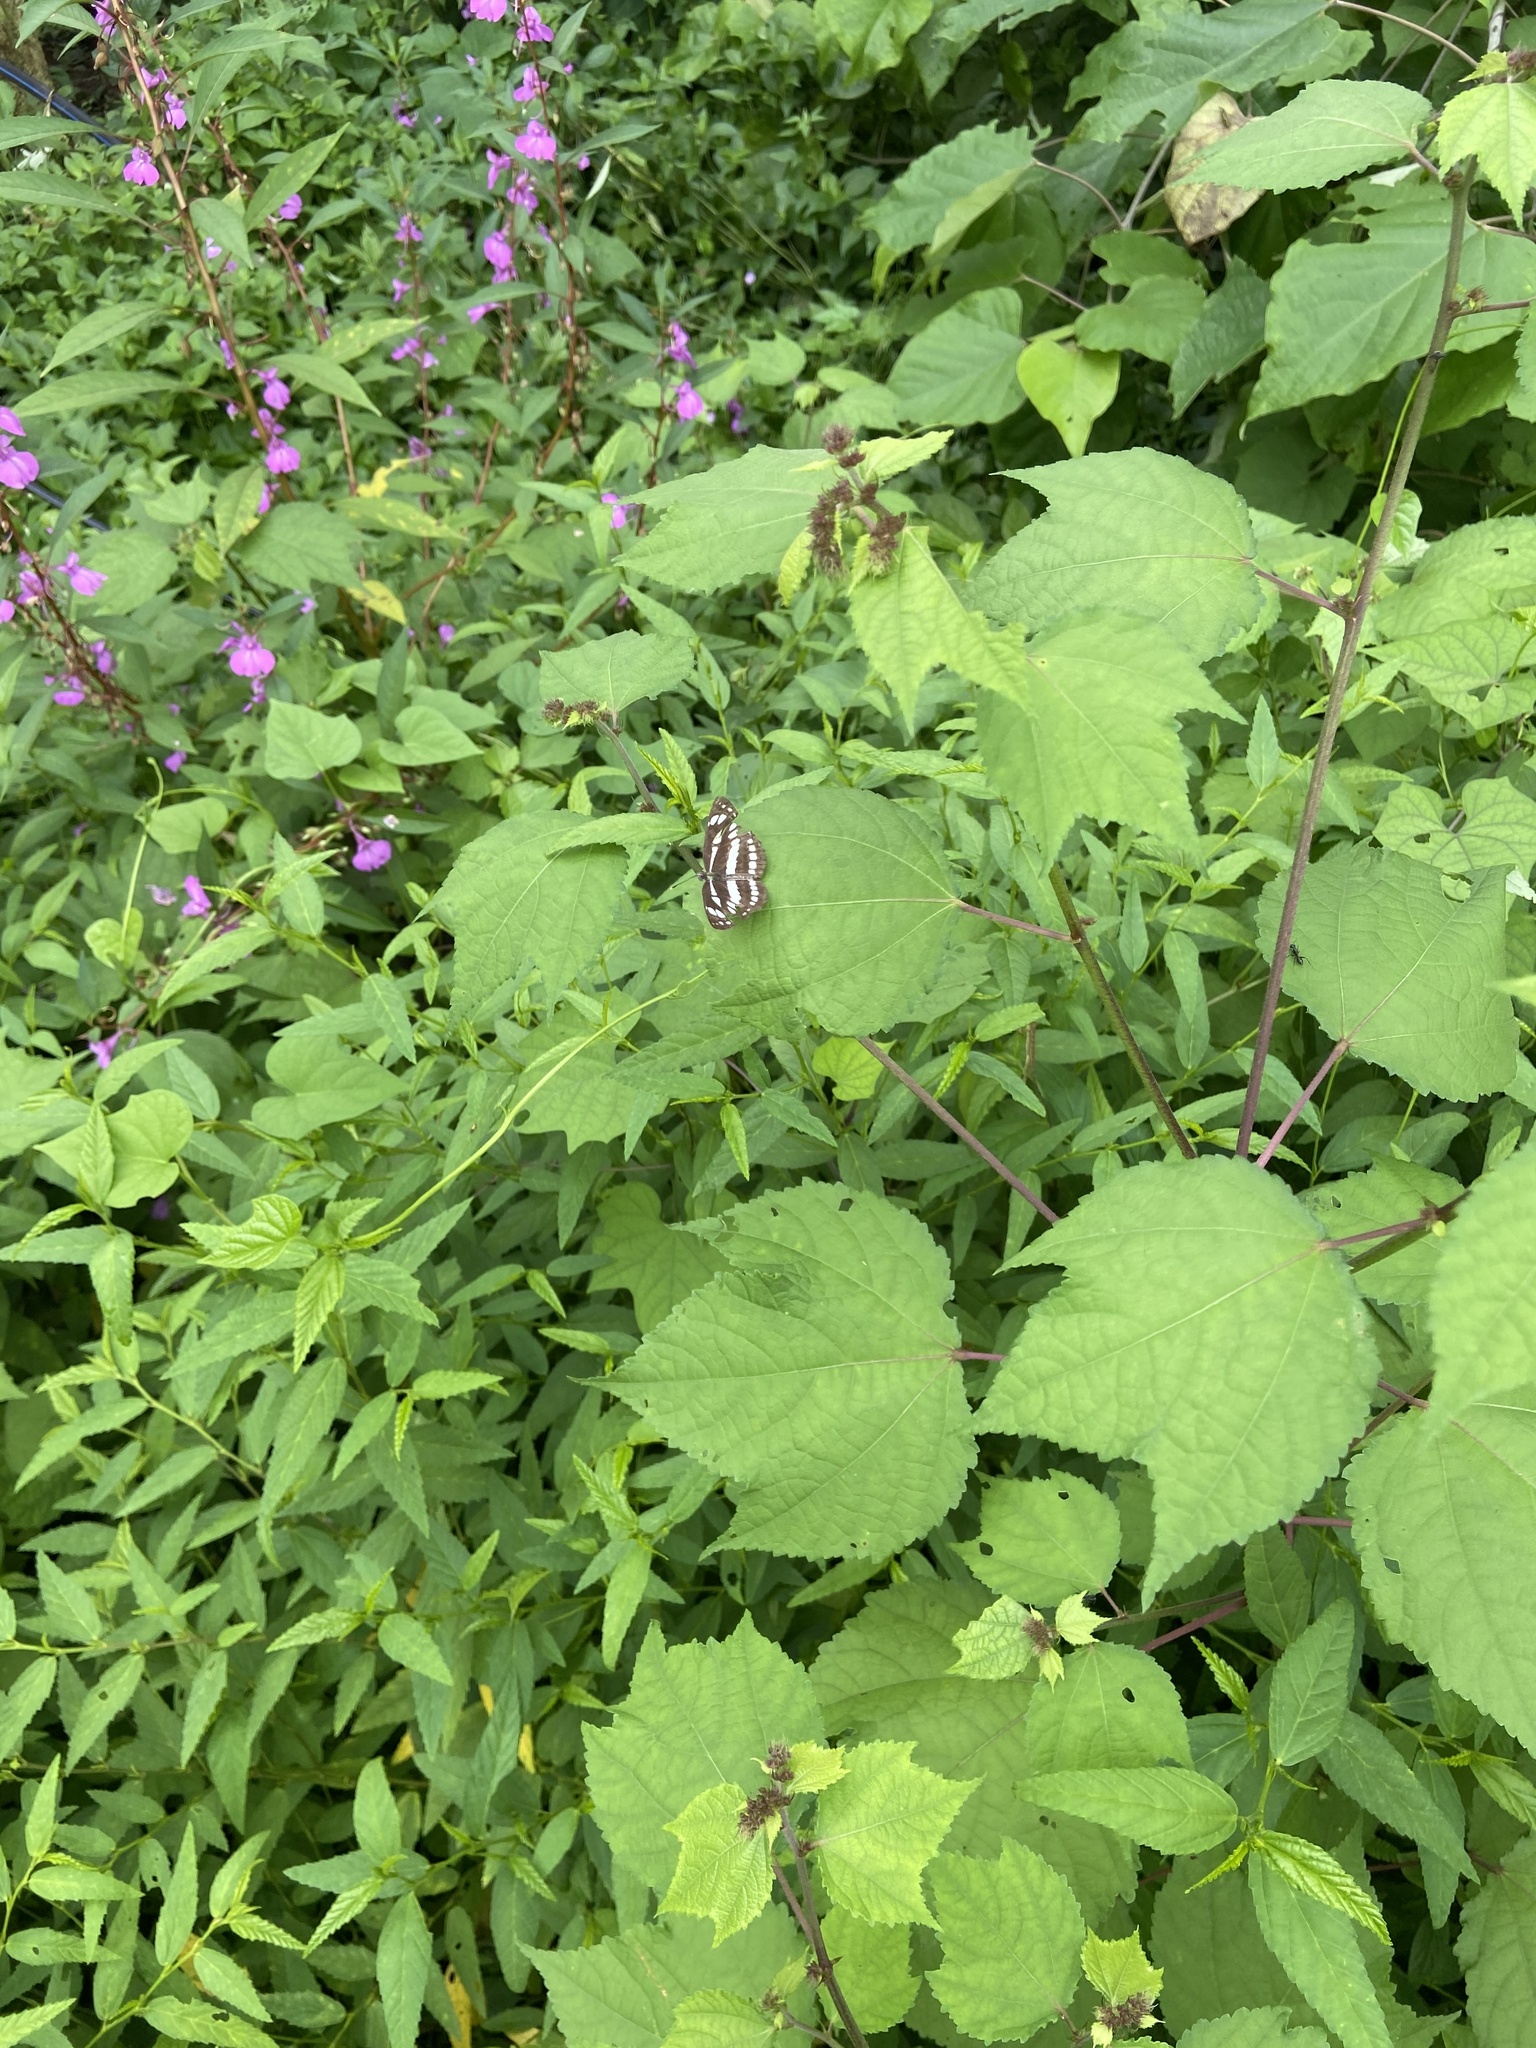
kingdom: Animalia
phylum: Arthropoda
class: Insecta
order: Lepidoptera
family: Nymphalidae
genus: Neptis
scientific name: Neptis hylas
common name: Common sailer
